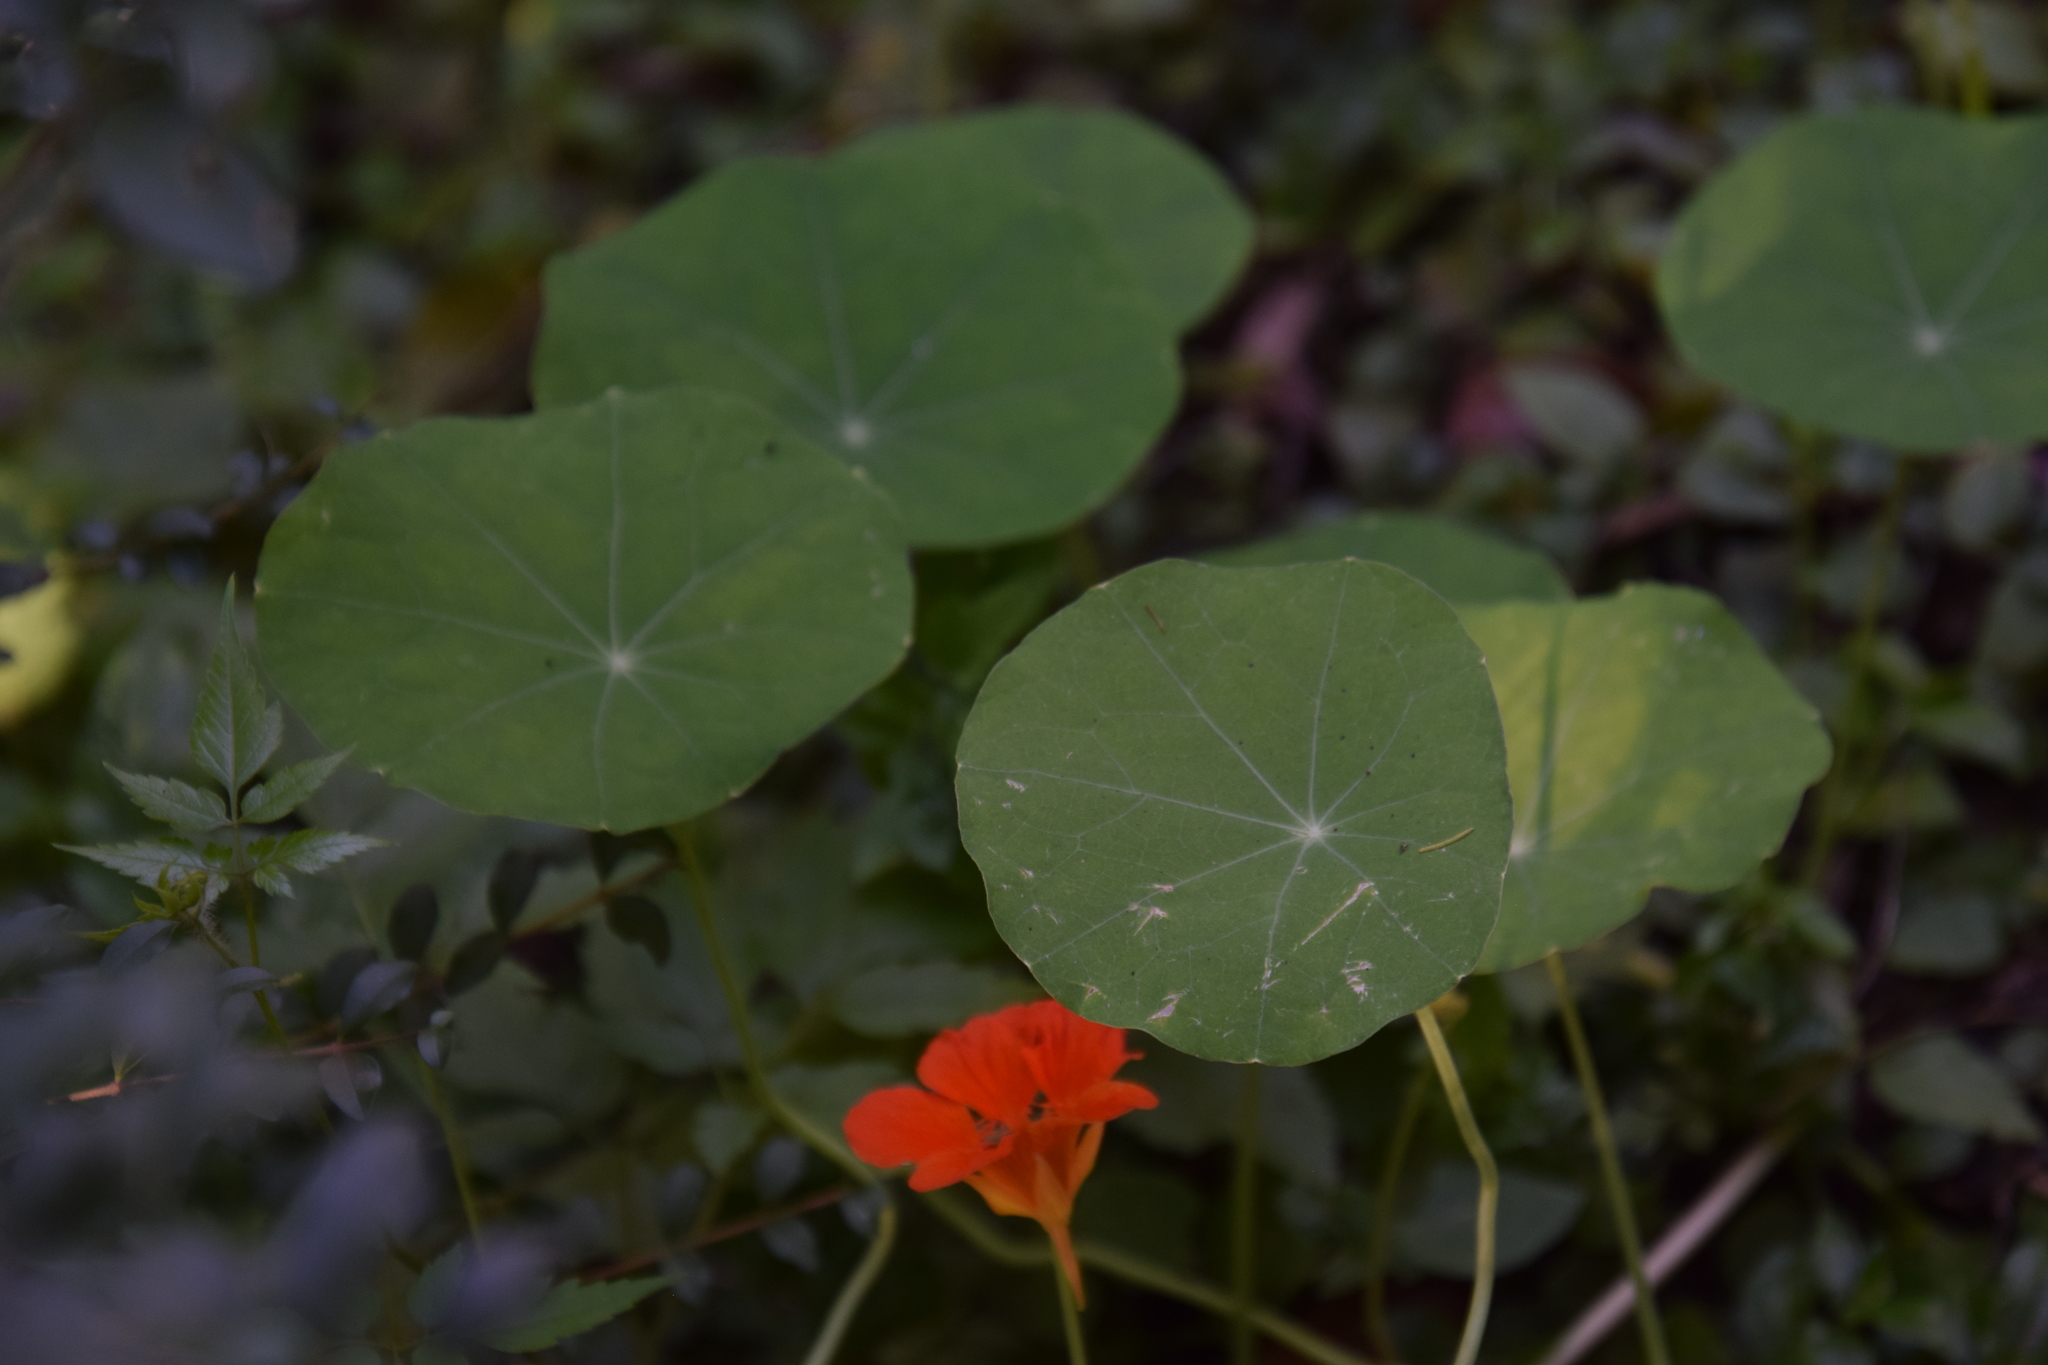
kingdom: Plantae
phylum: Tracheophyta
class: Magnoliopsida
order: Brassicales
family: Tropaeolaceae
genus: Tropaeolum
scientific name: Tropaeolum majus
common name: Nasturtium
